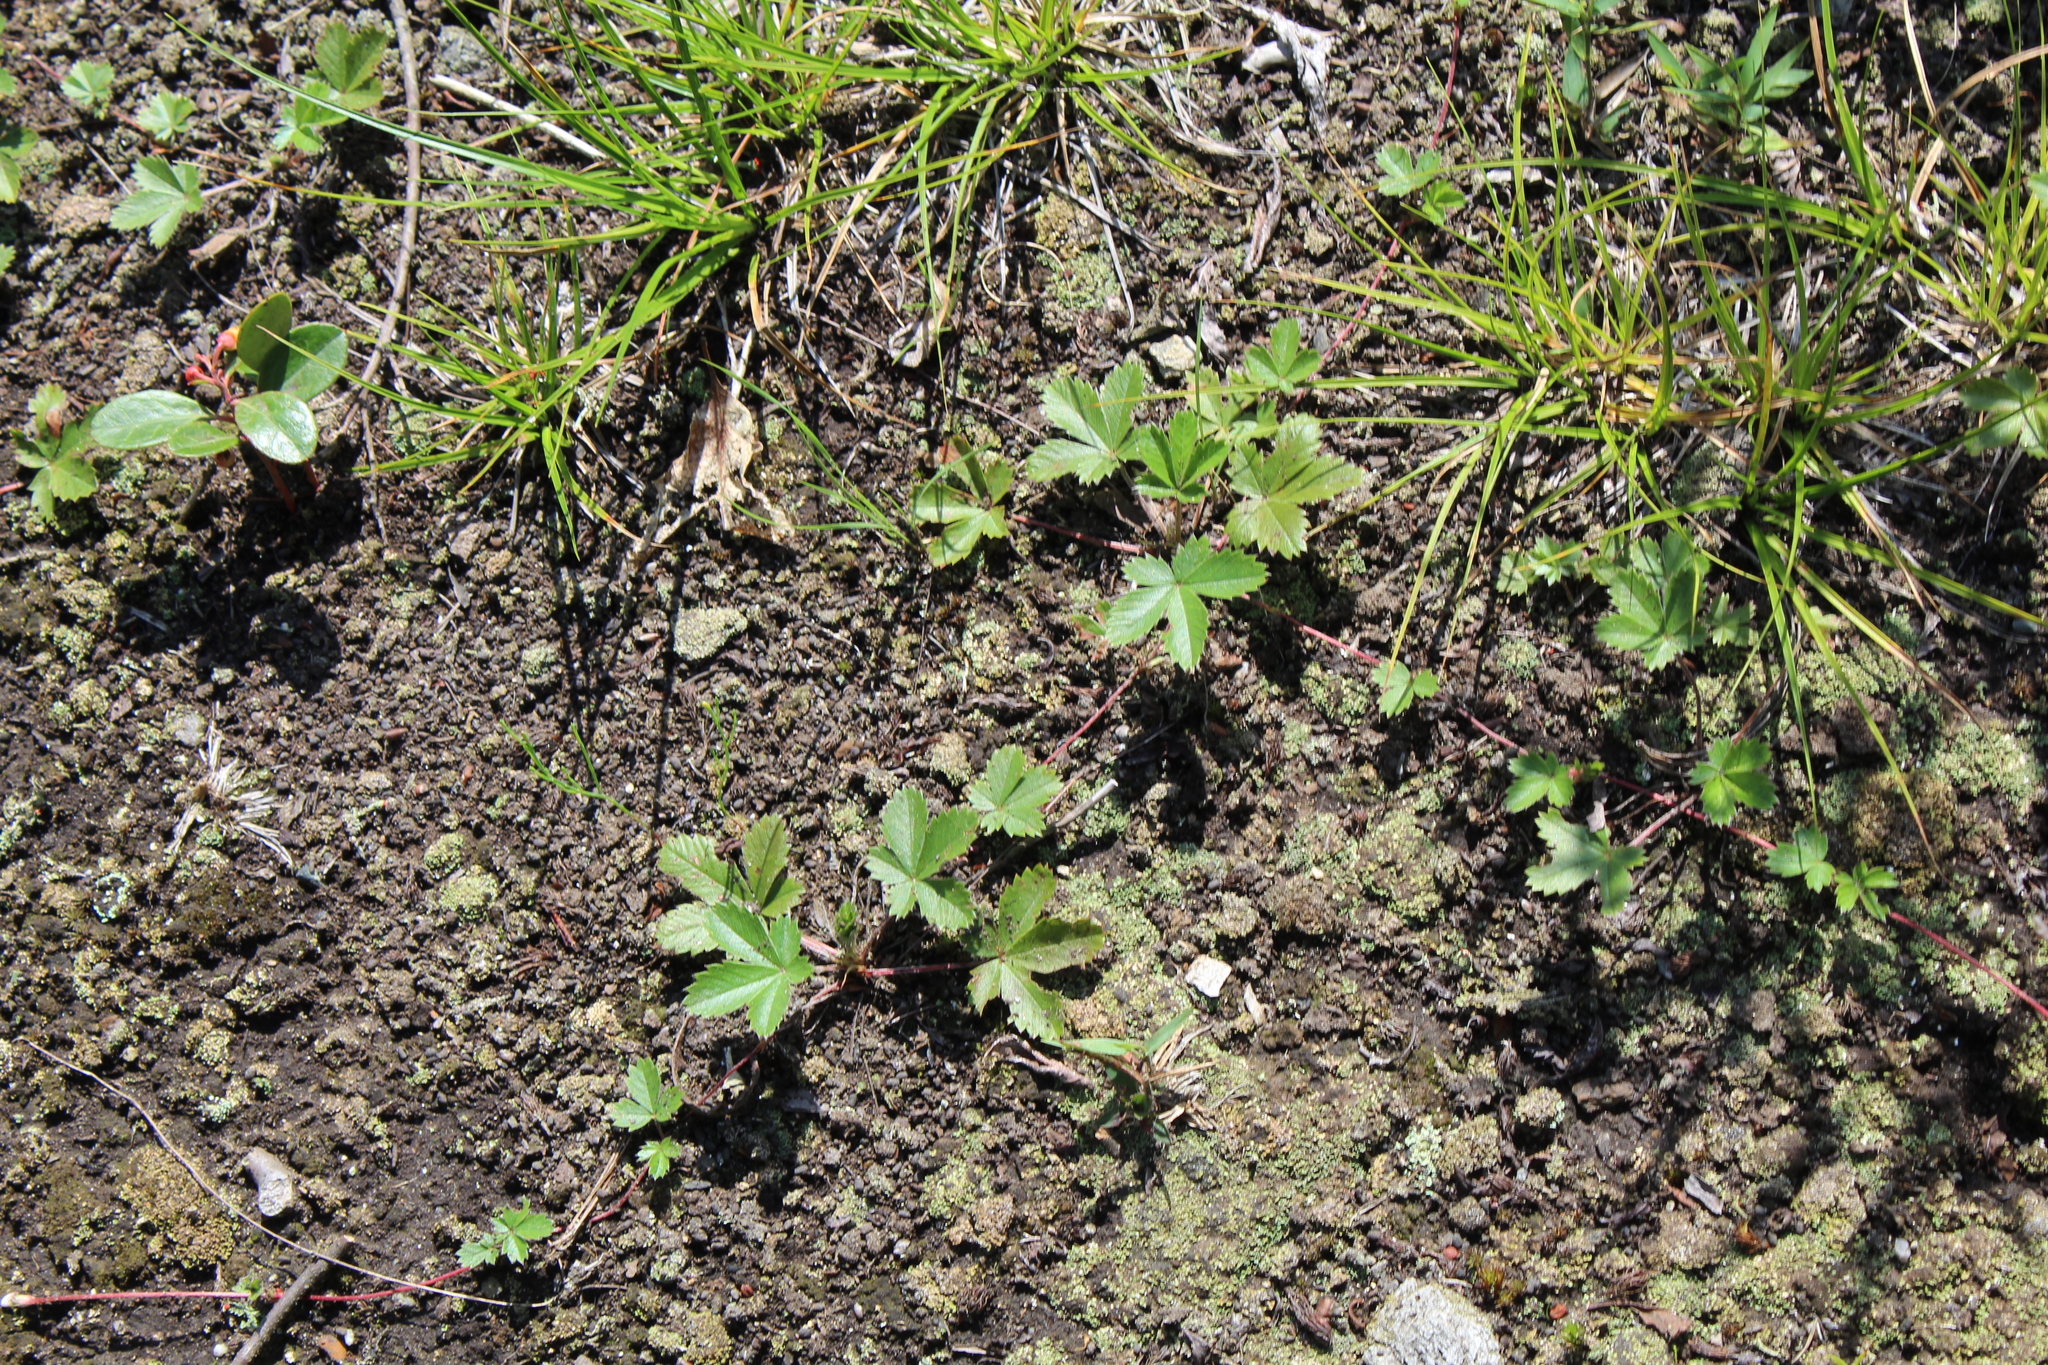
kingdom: Plantae
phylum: Tracheophyta
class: Magnoliopsida
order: Rosales
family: Rosaceae
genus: Potentilla
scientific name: Potentilla simplex
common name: Old field cinquefoil
